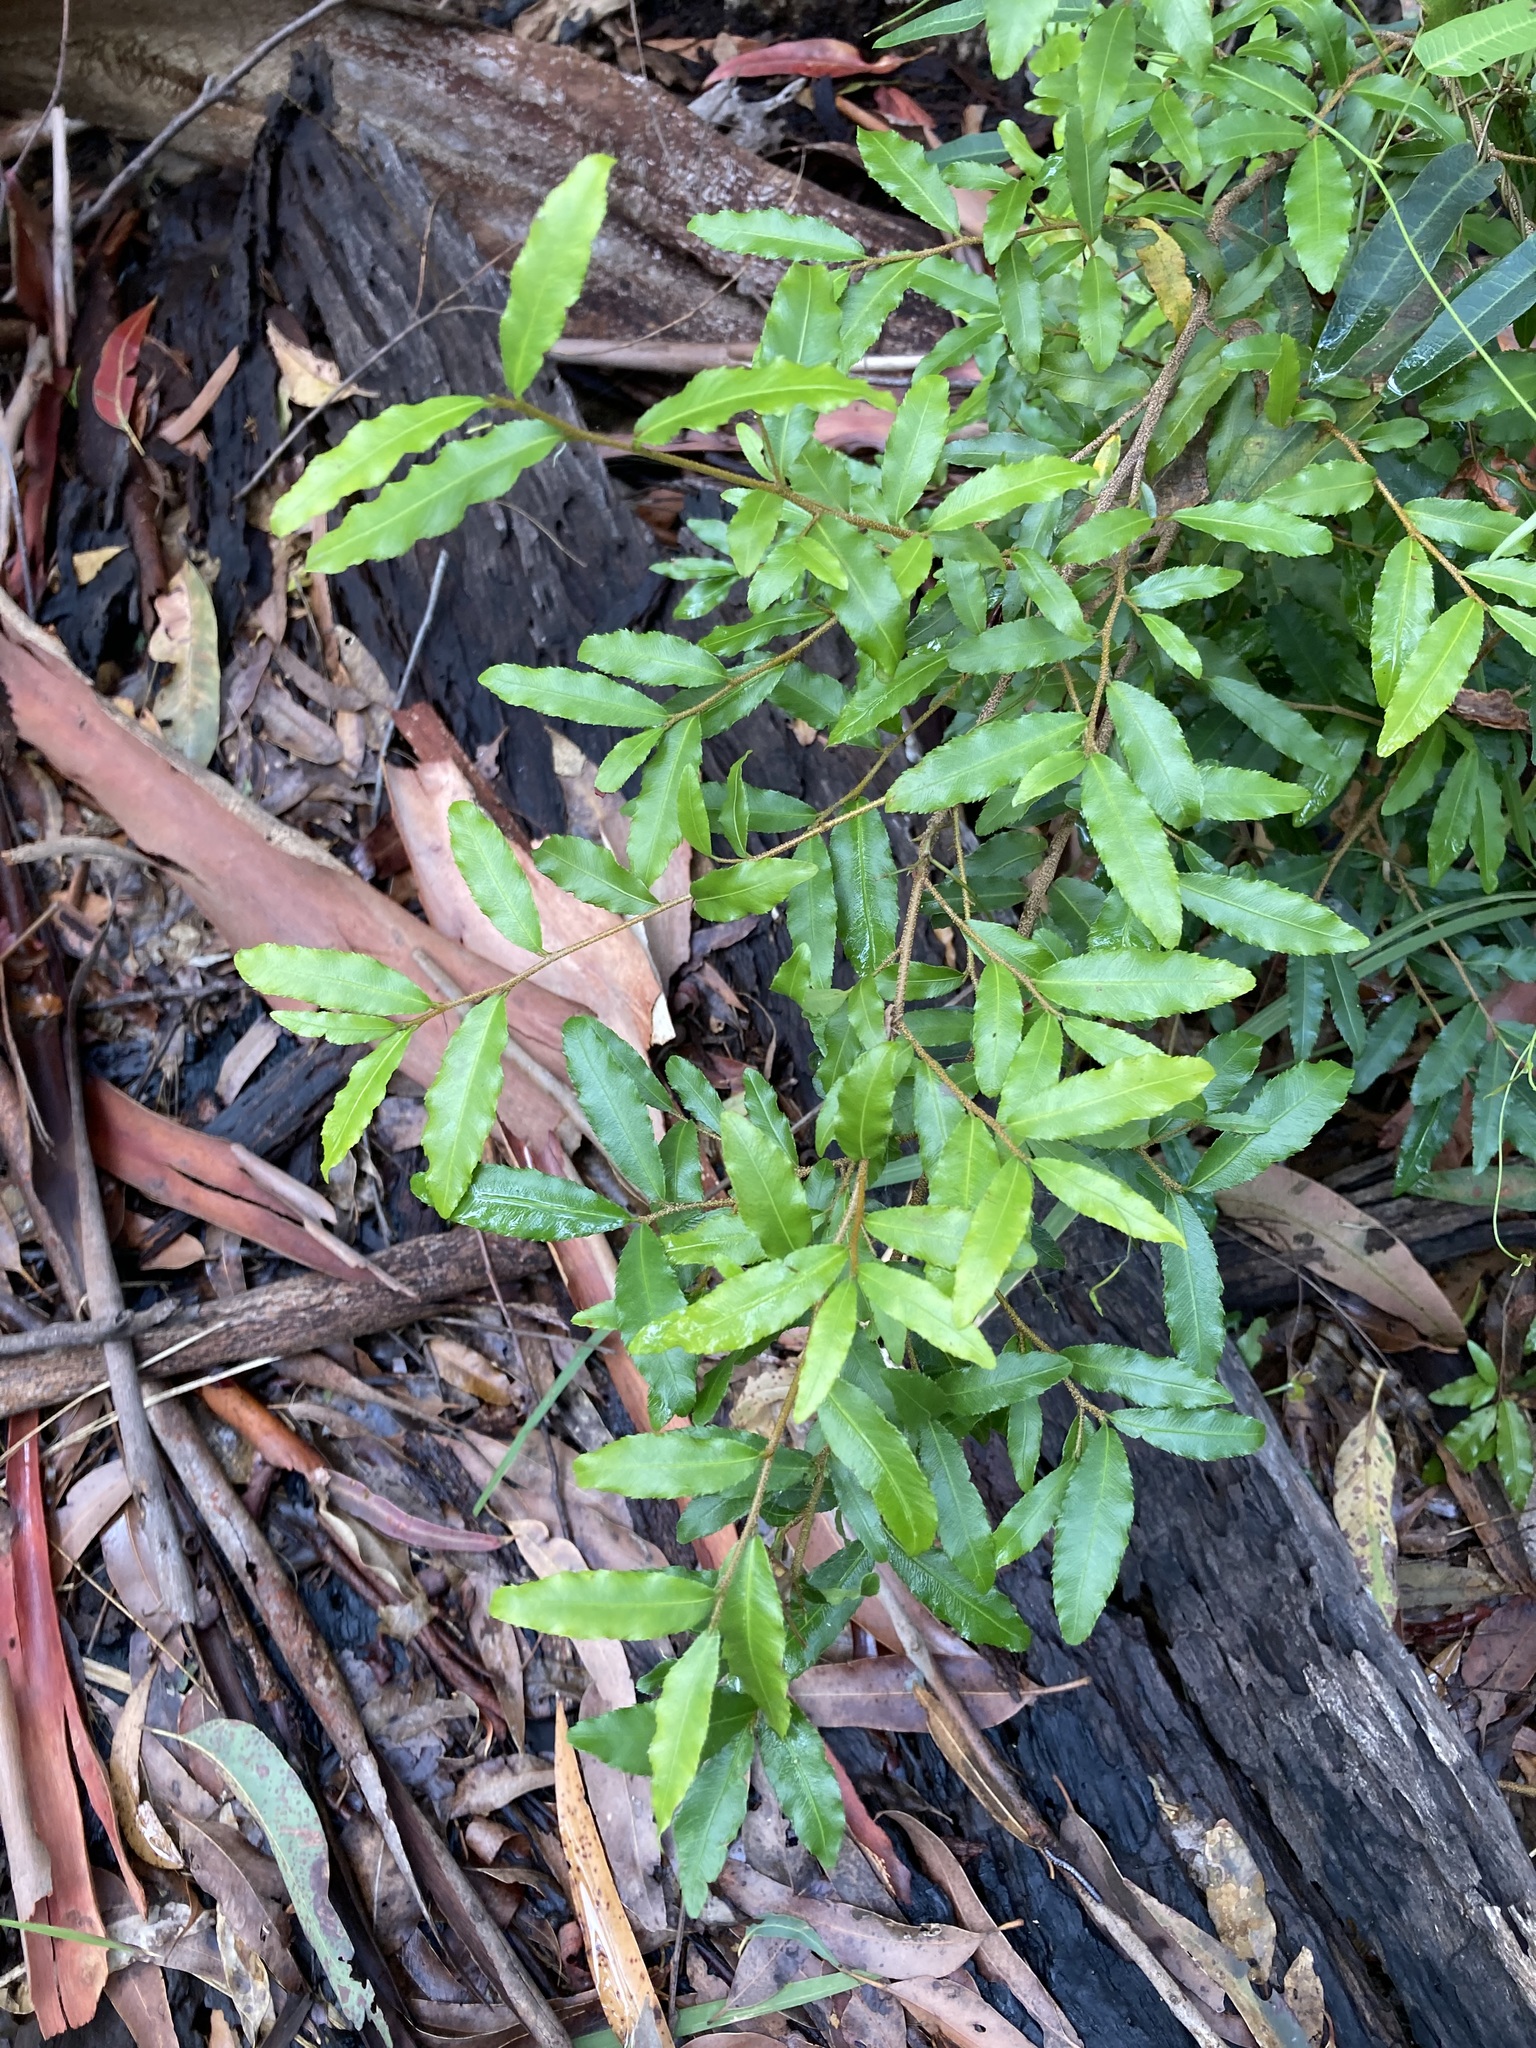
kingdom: Plantae
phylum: Tracheophyta
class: Magnoliopsida
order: Malpighiales
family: Ochnaceae
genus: Ochna
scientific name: Ochna serrulata
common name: Mickey mouse plant
